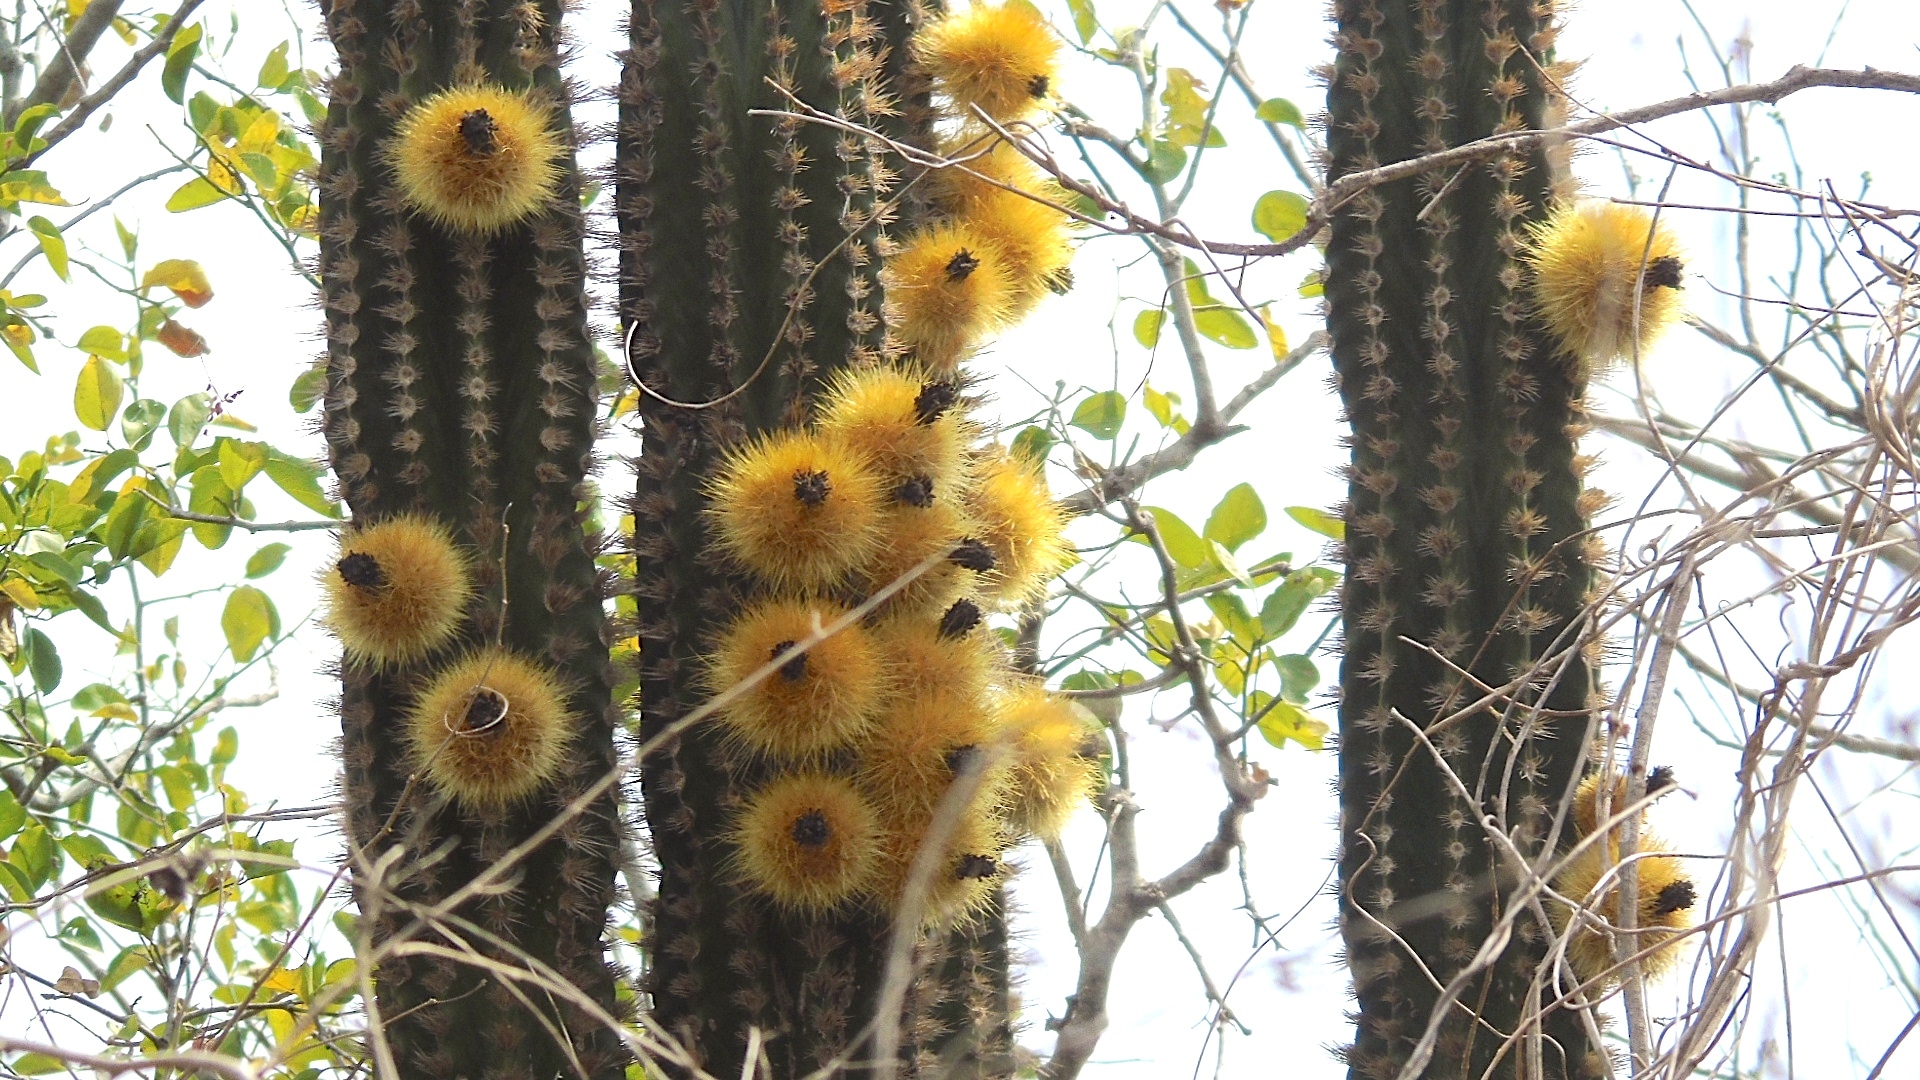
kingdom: Plantae
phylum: Tracheophyta
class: Magnoliopsida
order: Caryophyllales
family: Cactaceae
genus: Pachycereus
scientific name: Pachycereus pecten-aboriginum
